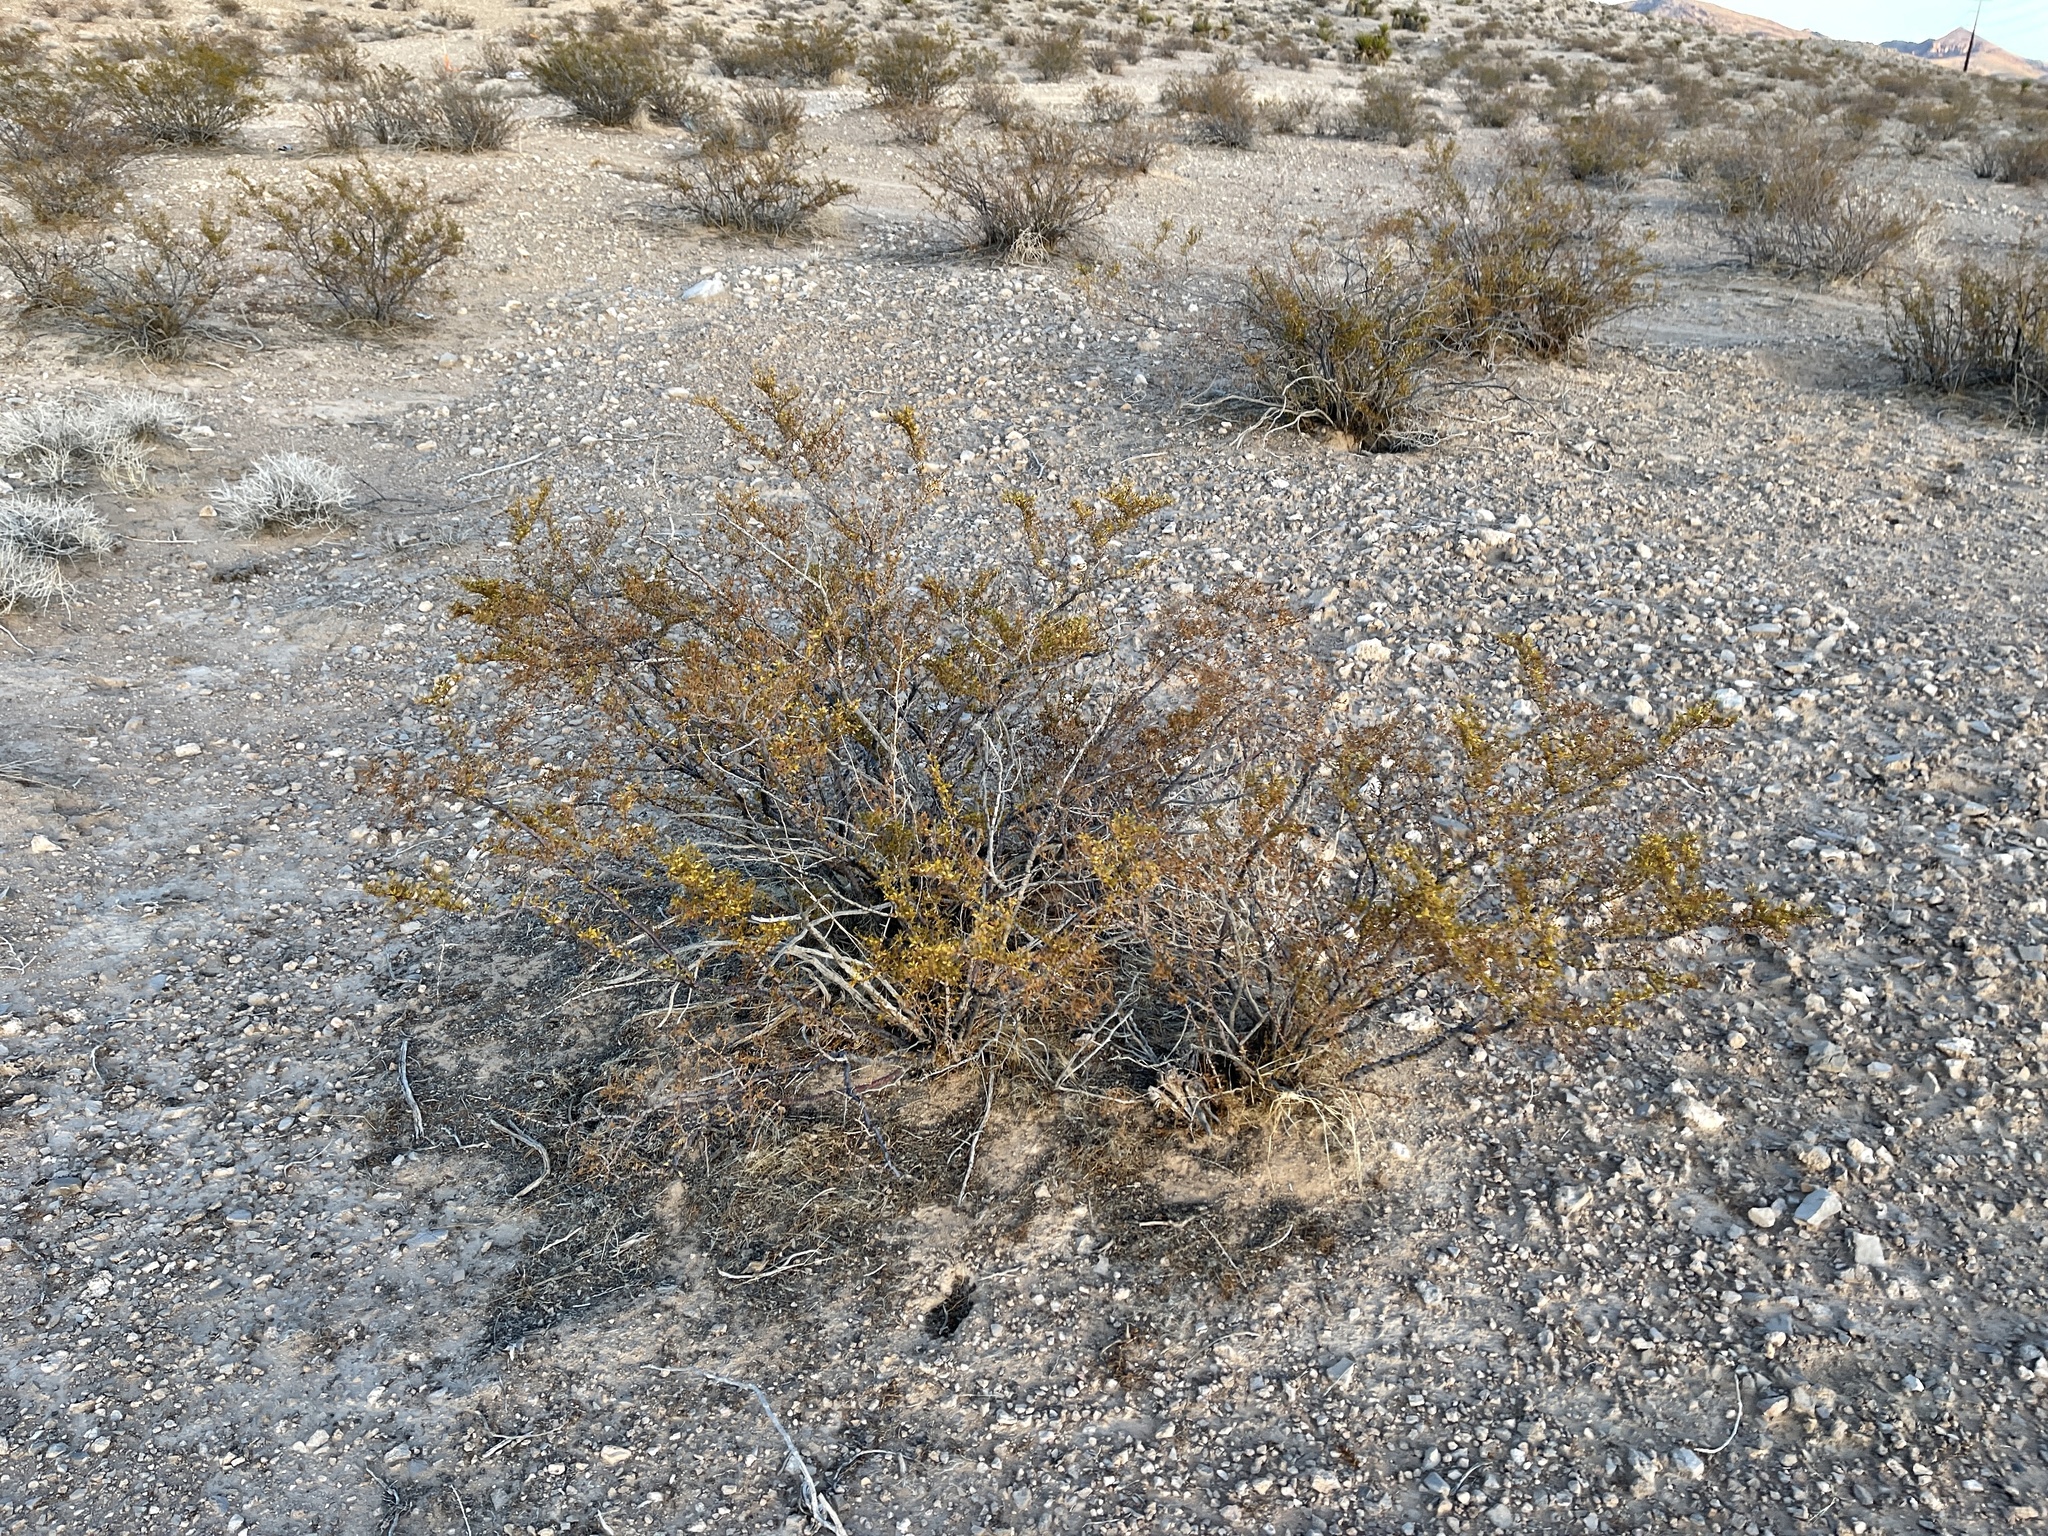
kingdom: Plantae
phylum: Tracheophyta
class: Magnoliopsida
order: Zygophyllales
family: Zygophyllaceae
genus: Larrea
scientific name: Larrea tridentata
